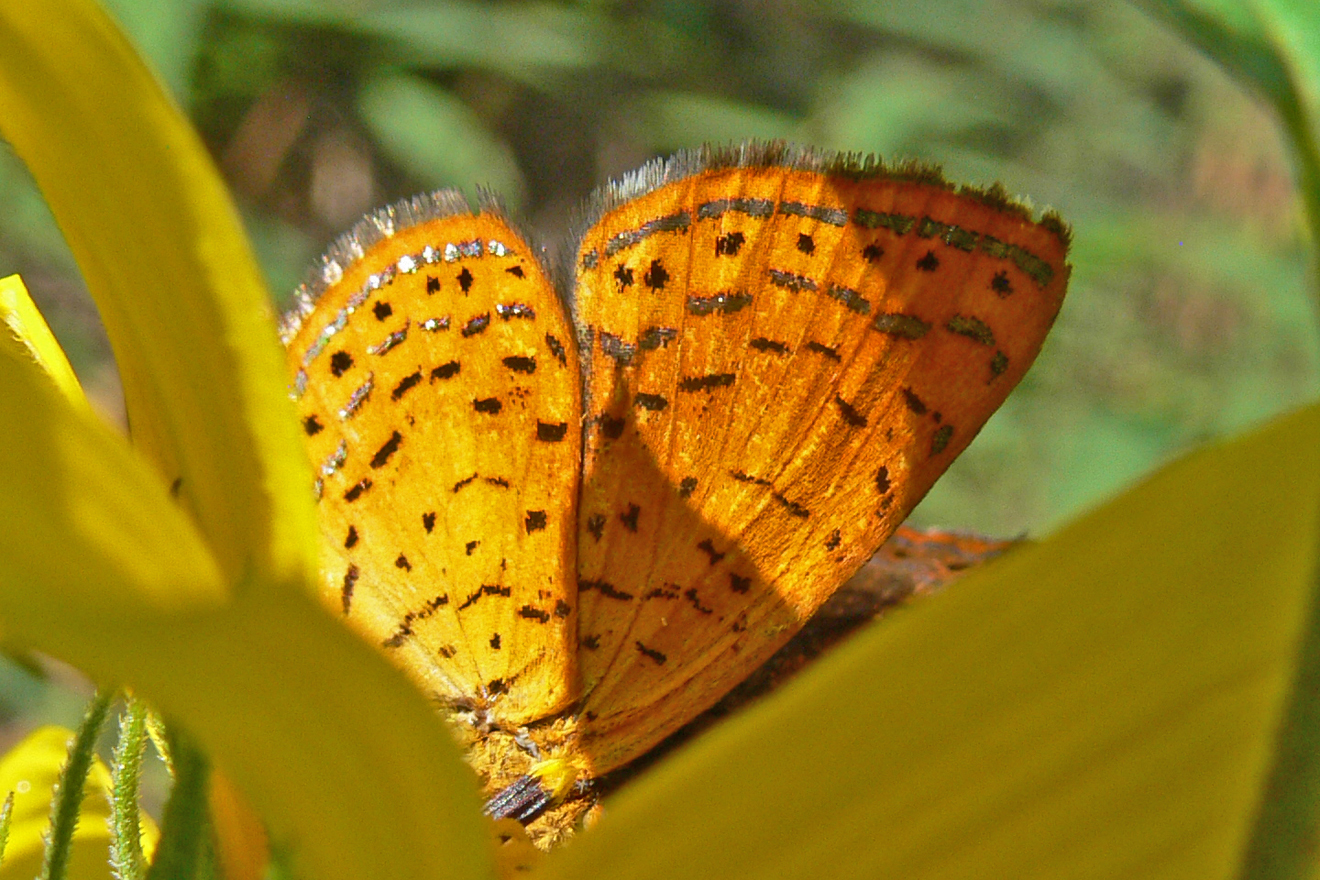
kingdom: Animalia
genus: Calephelis
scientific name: Calephelis borealis
